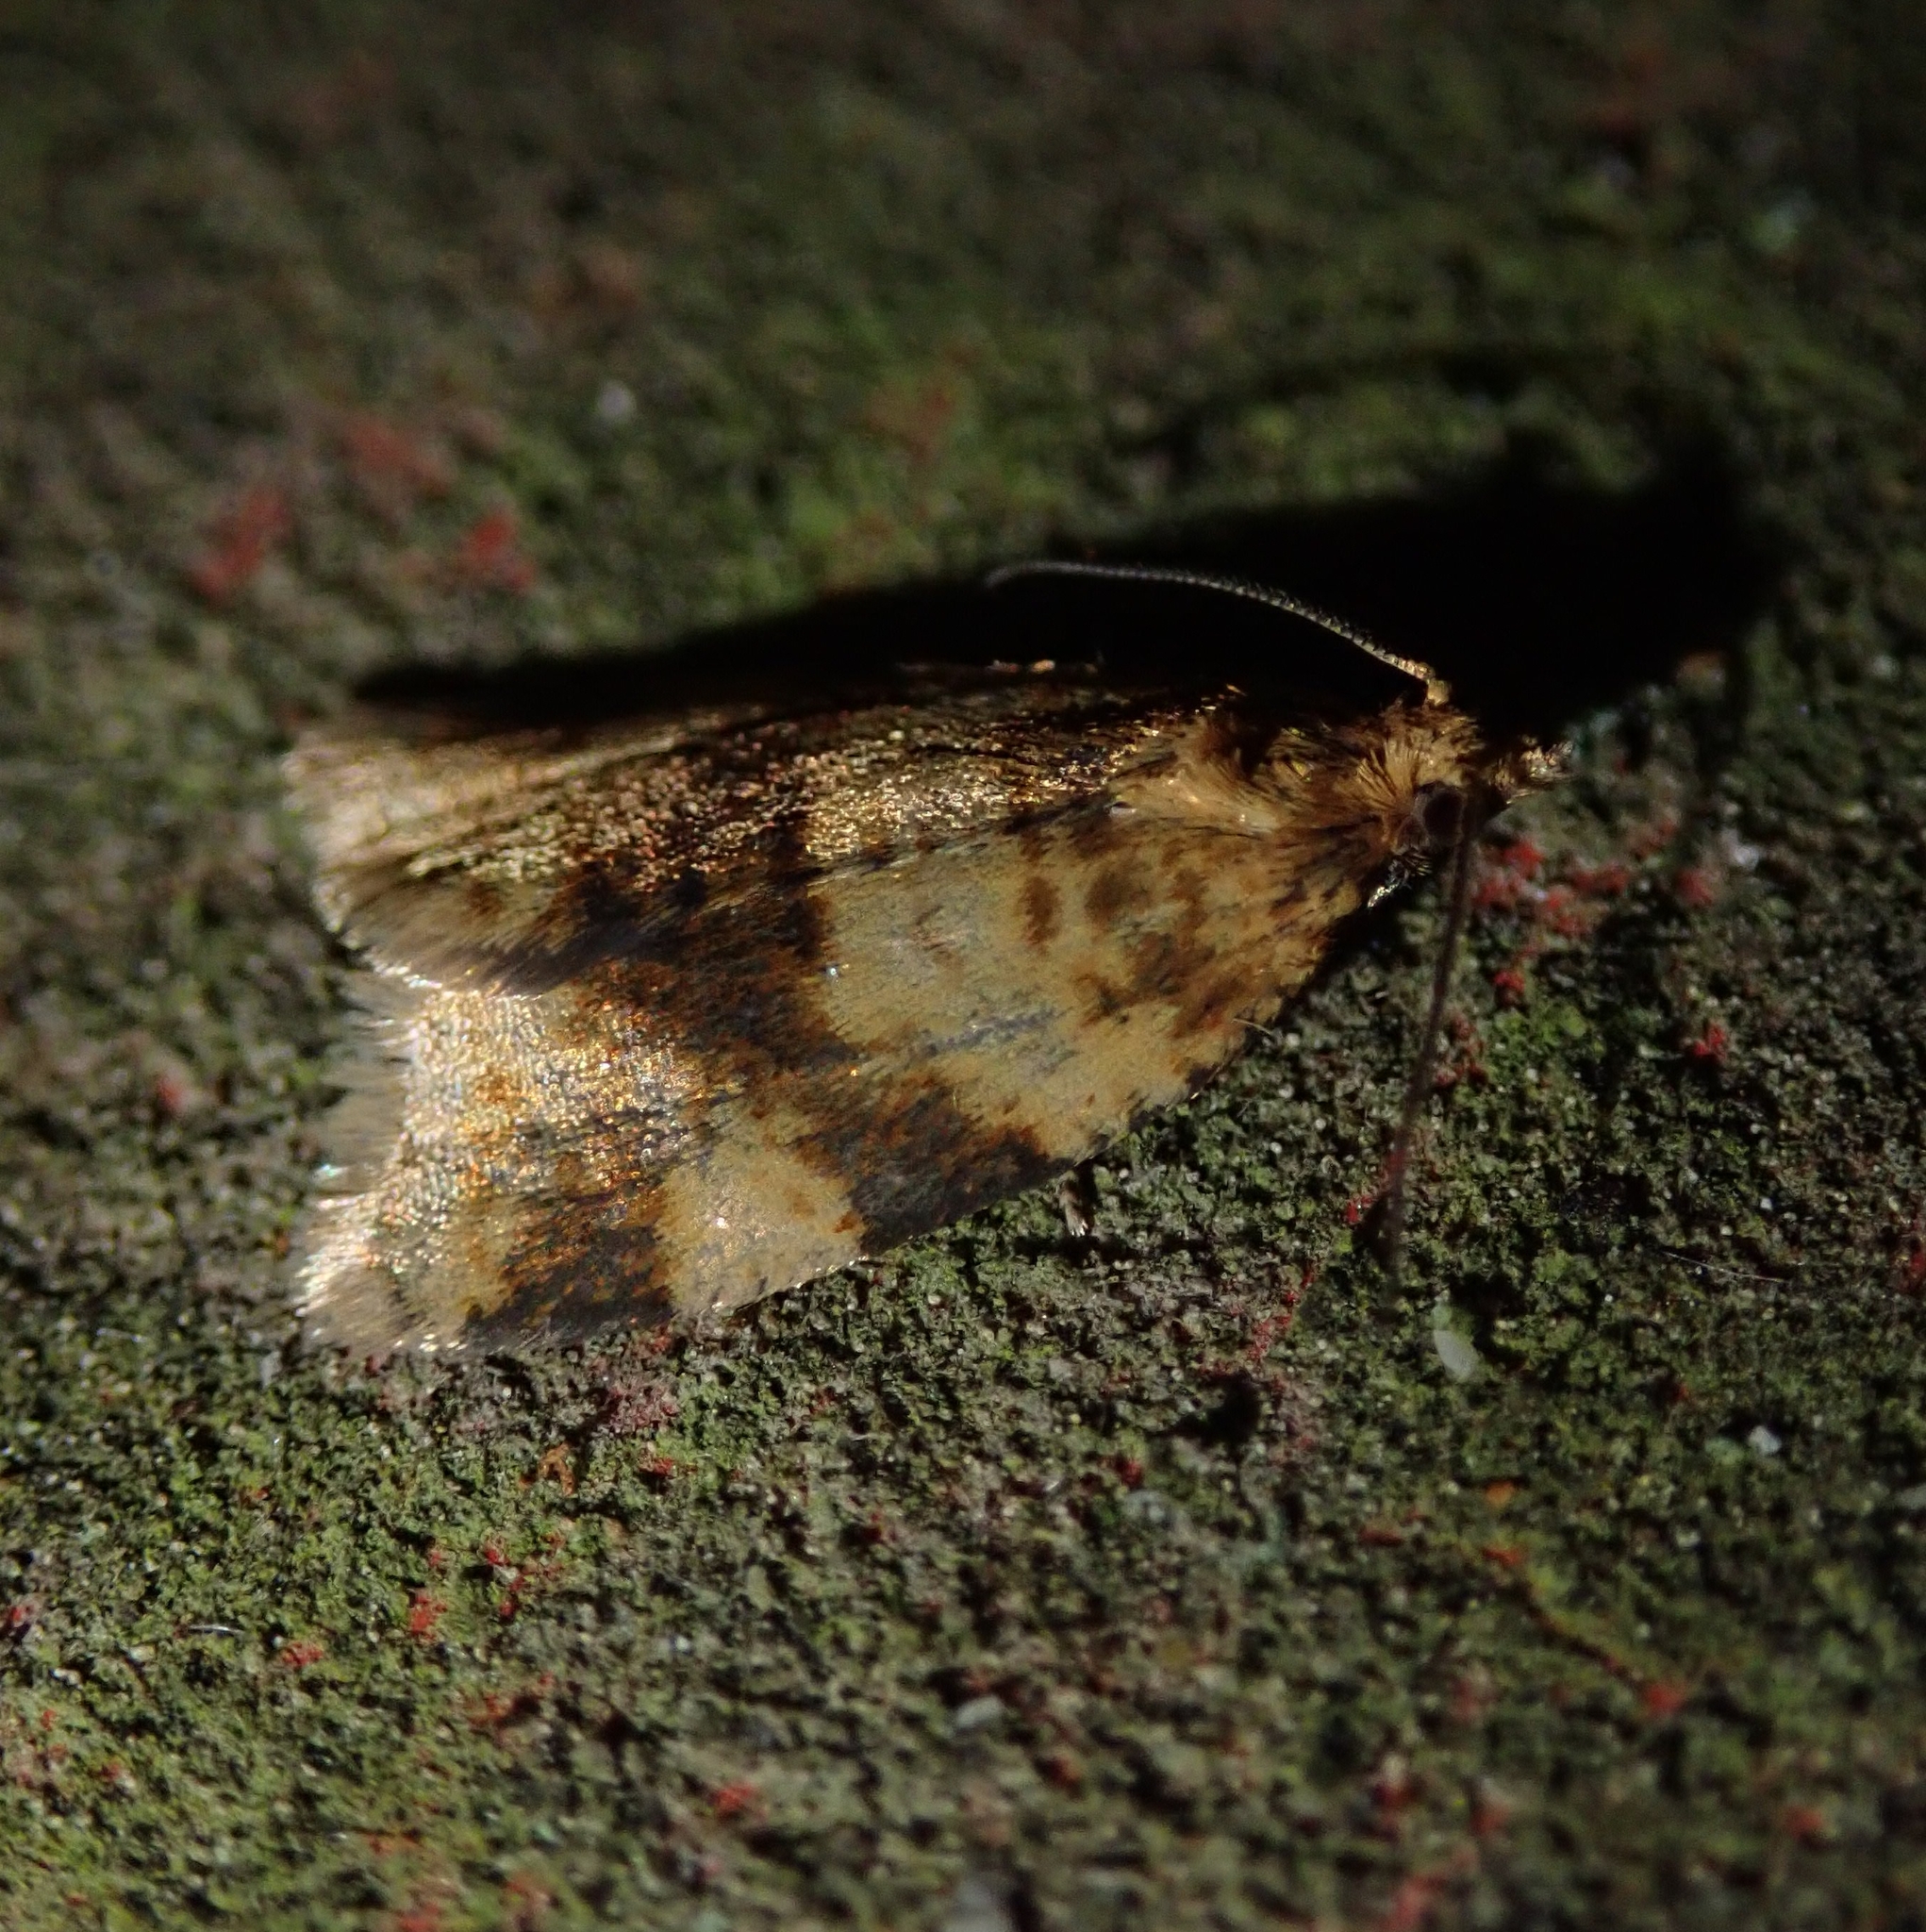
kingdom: Animalia
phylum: Arthropoda
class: Insecta
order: Lepidoptera
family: Tortricidae
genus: Epagoge
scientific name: Epagoge grotiana
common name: Brown-barred twist
